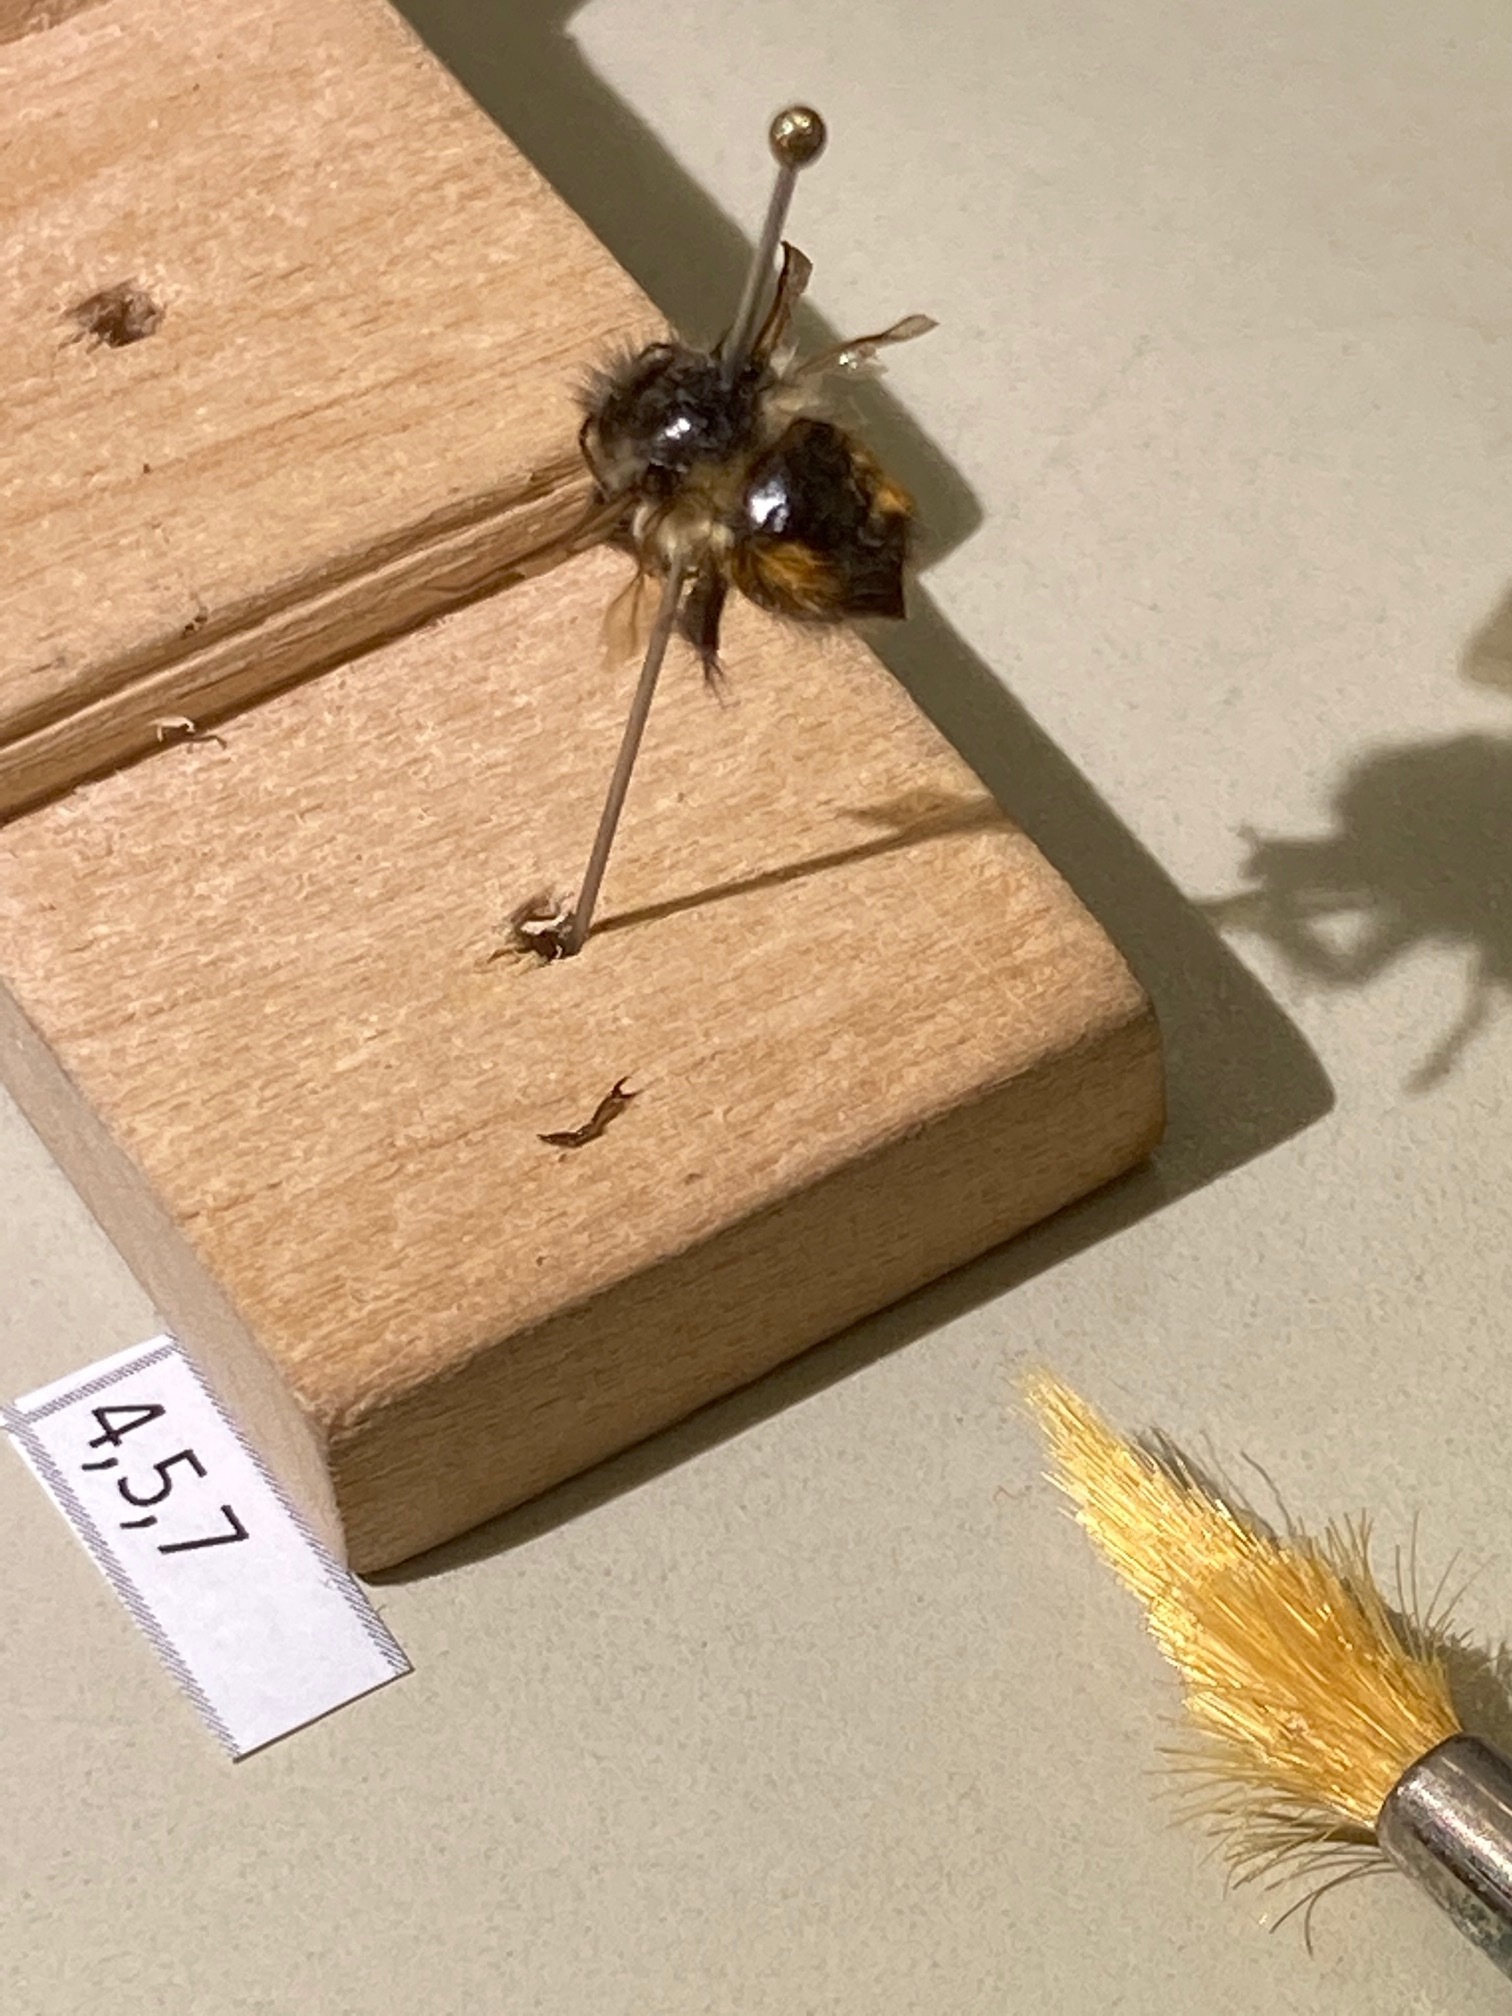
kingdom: Animalia
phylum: Arthropoda
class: Insecta
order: Hymenoptera
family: Apidae
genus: Bombus
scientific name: Bombus melanopygus
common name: Black tail bumble bee
